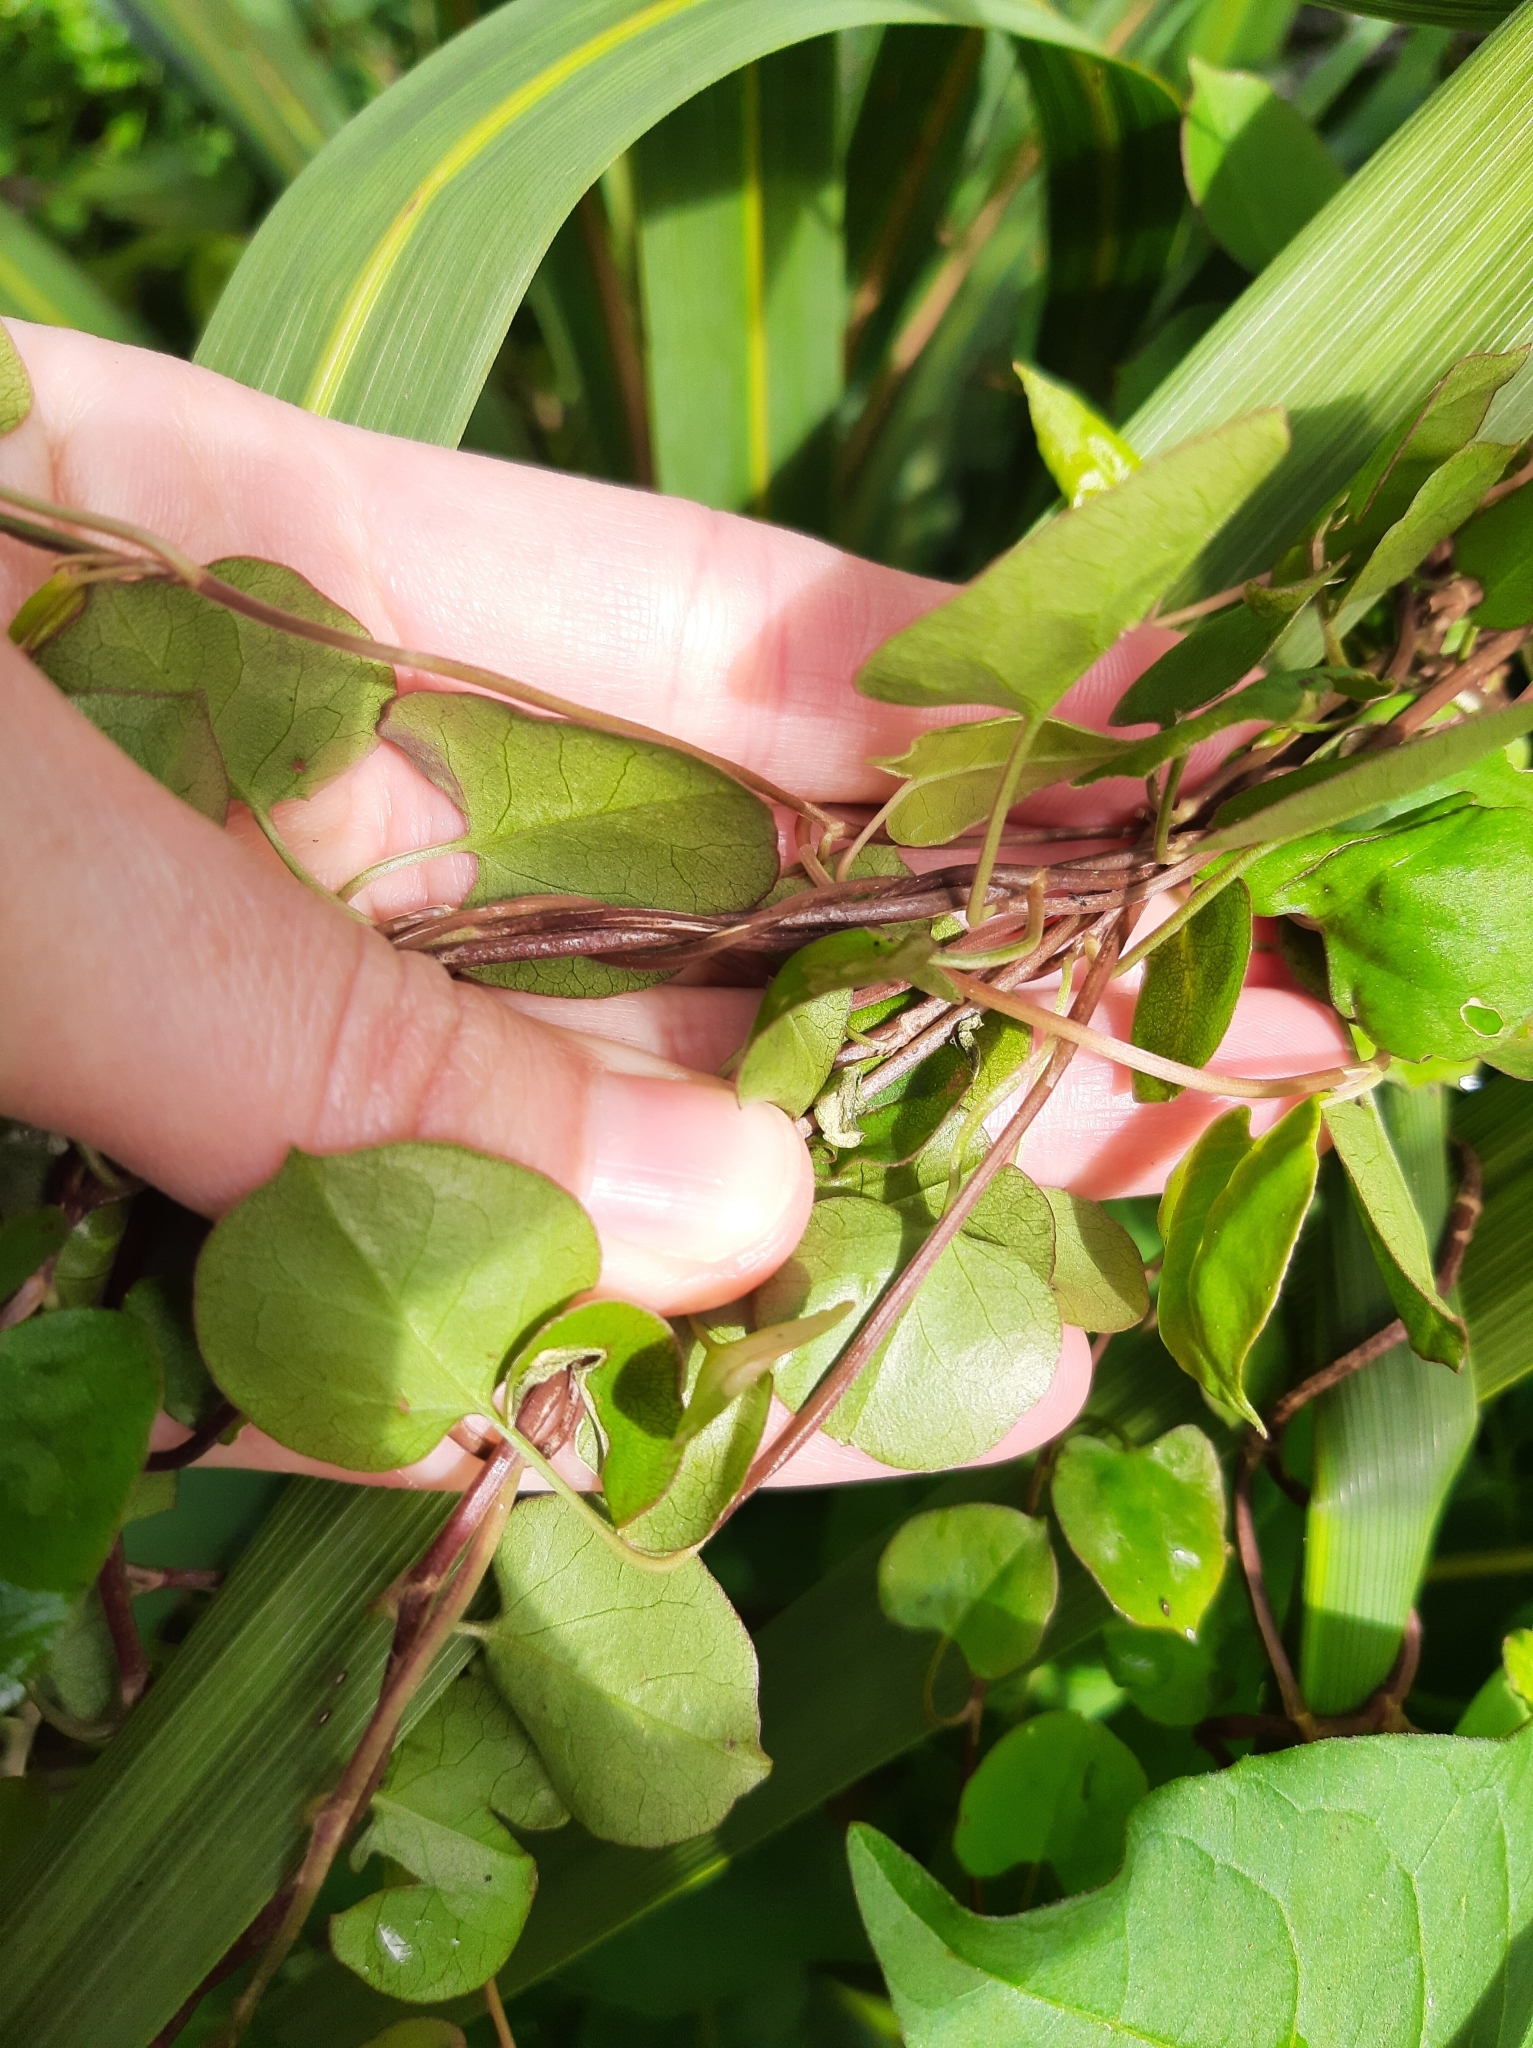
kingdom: Plantae
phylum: Tracheophyta
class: Magnoliopsida
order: Caryophyllales
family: Polygonaceae
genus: Muehlenbeckia
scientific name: Muehlenbeckia australis
